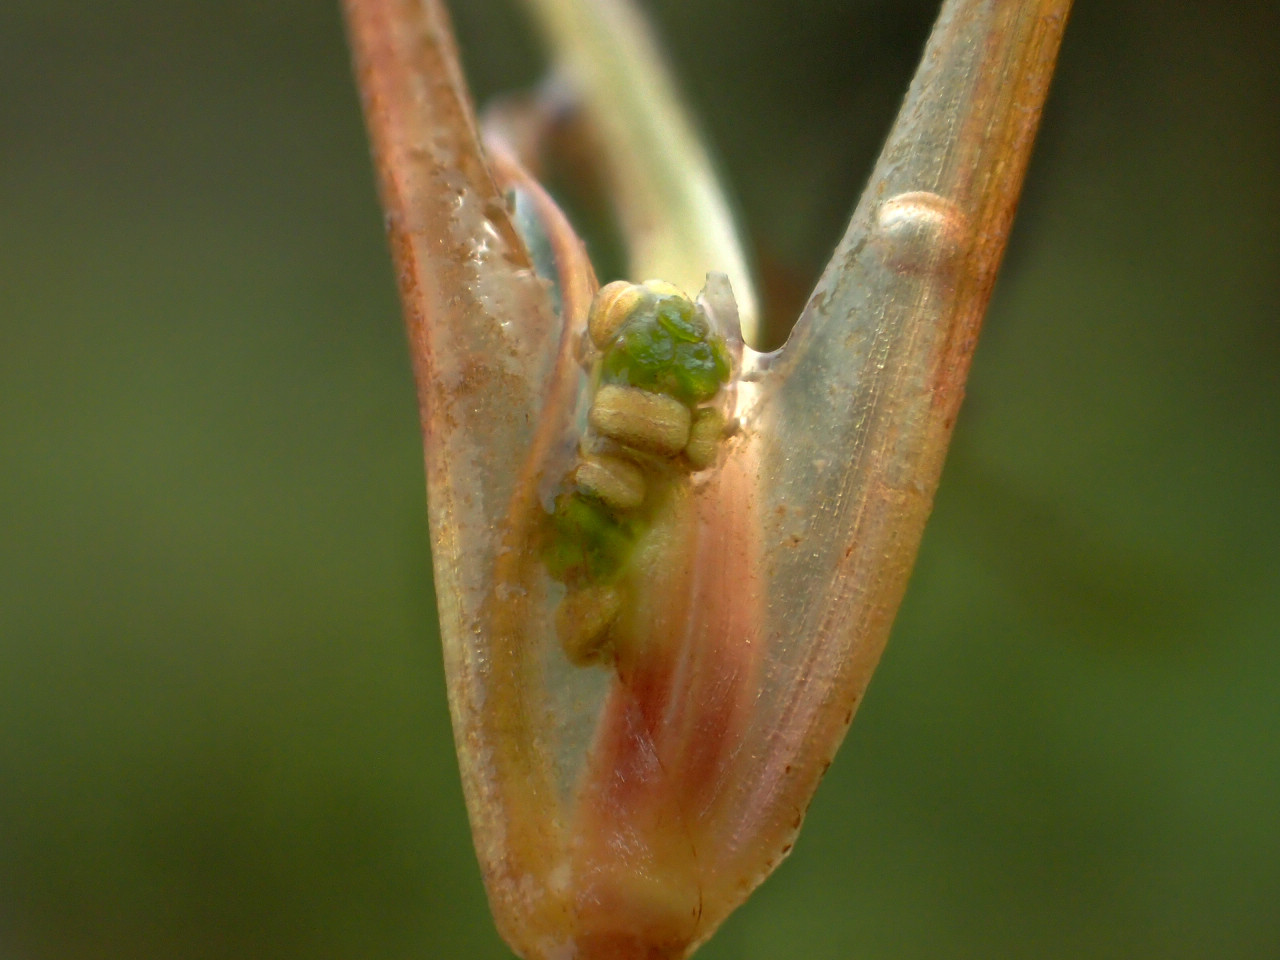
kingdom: Plantae
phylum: Tracheophyta
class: Liliopsida
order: Alismatales
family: Ruppiaceae
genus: Ruppia
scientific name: Ruppia maritima
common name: Beaked tasselweed
